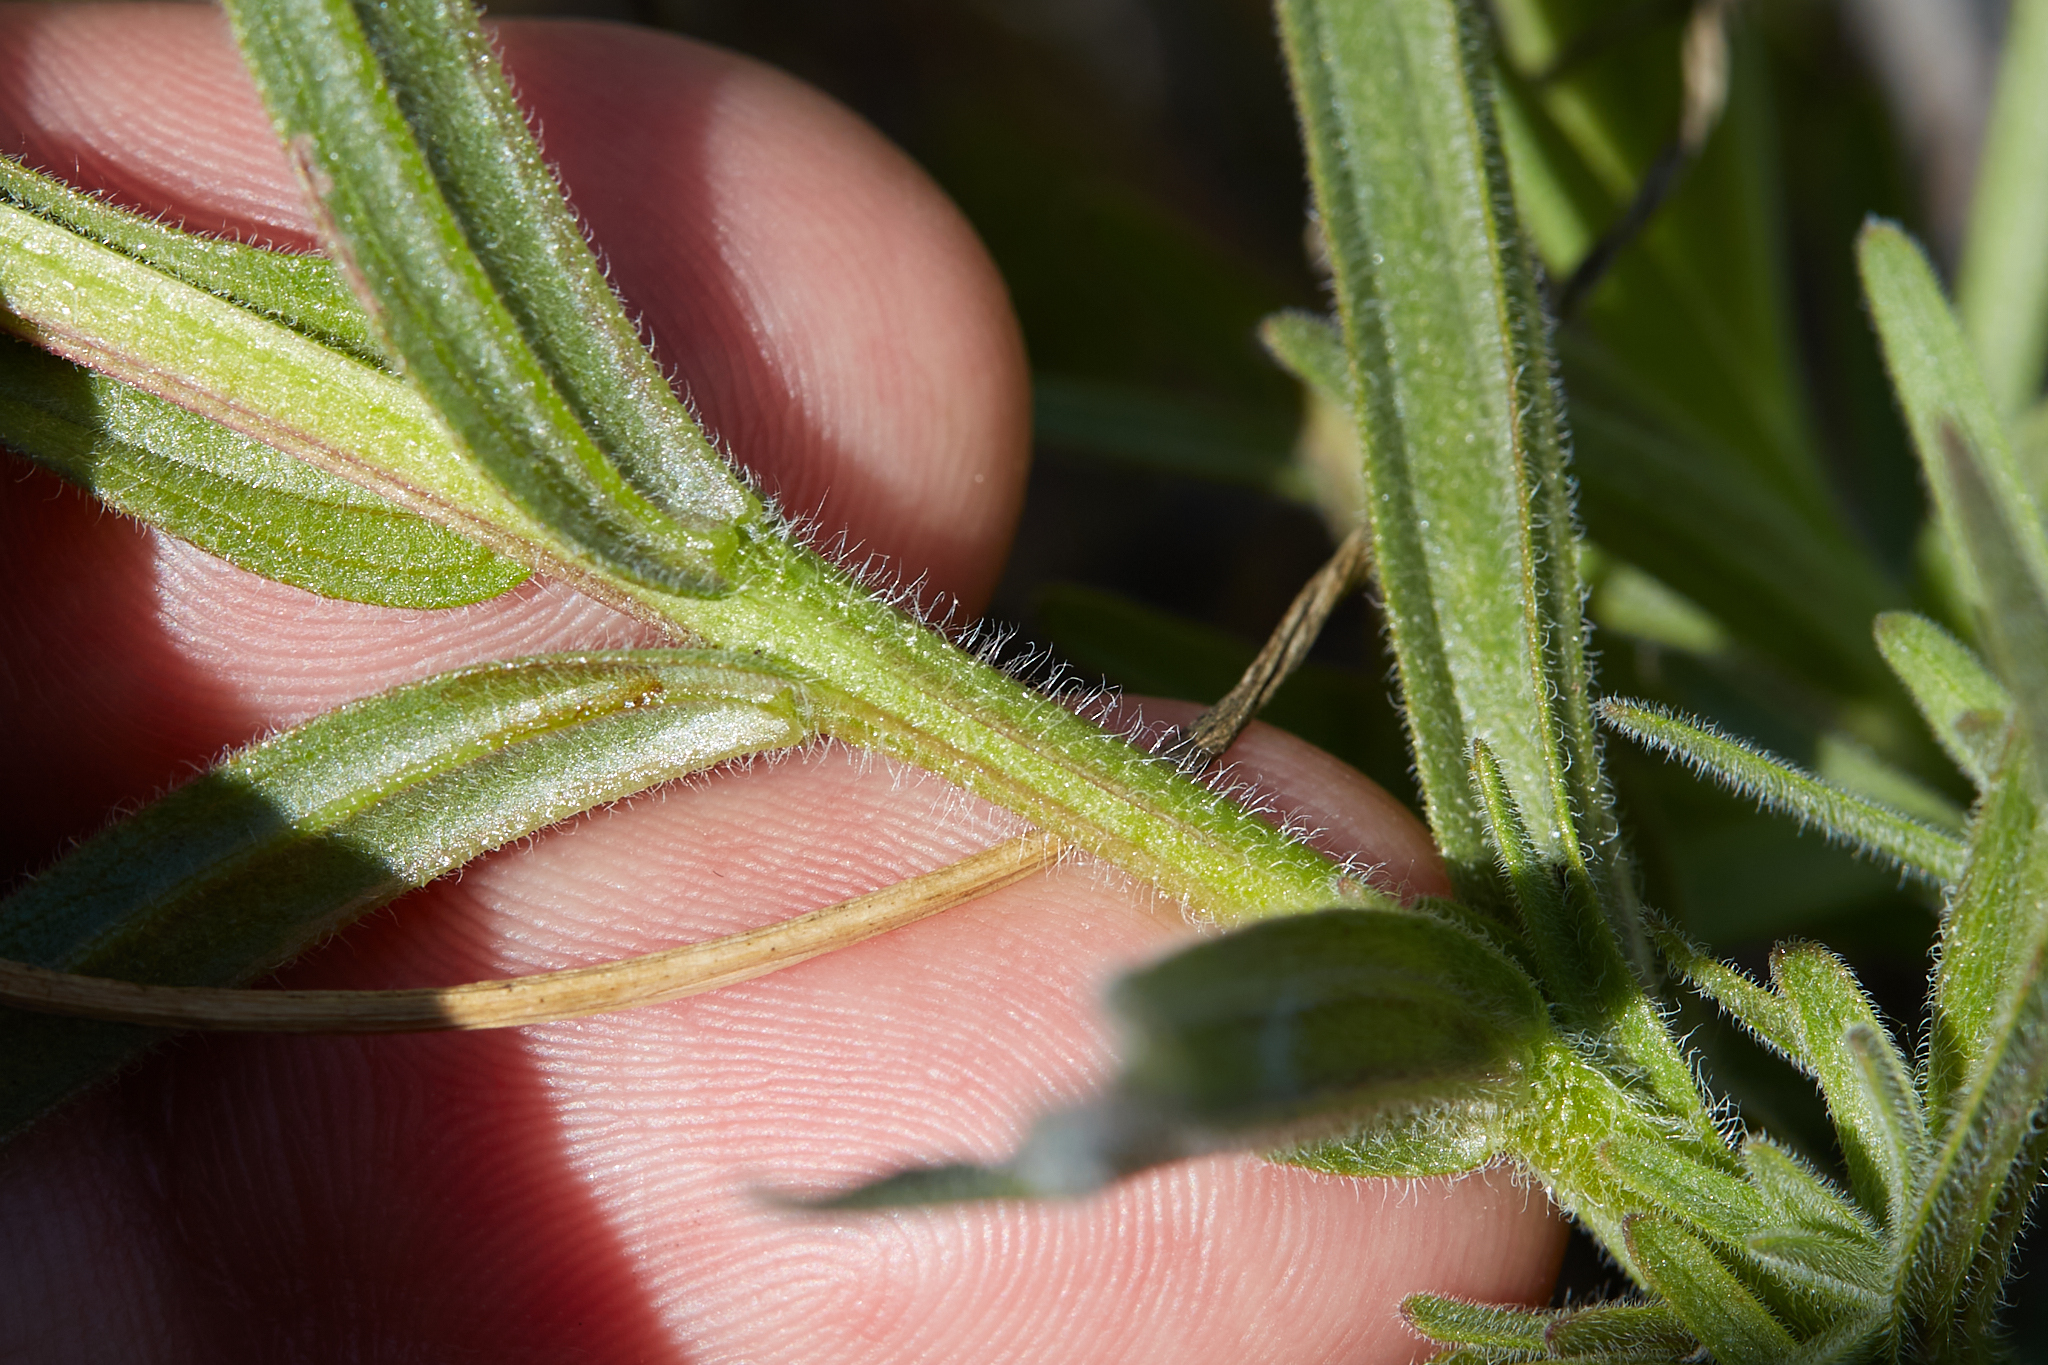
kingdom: Plantae
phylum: Tracheophyta
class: Magnoliopsida
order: Lamiales
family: Orobanchaceae
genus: Castilleja
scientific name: Castilleja affinis
